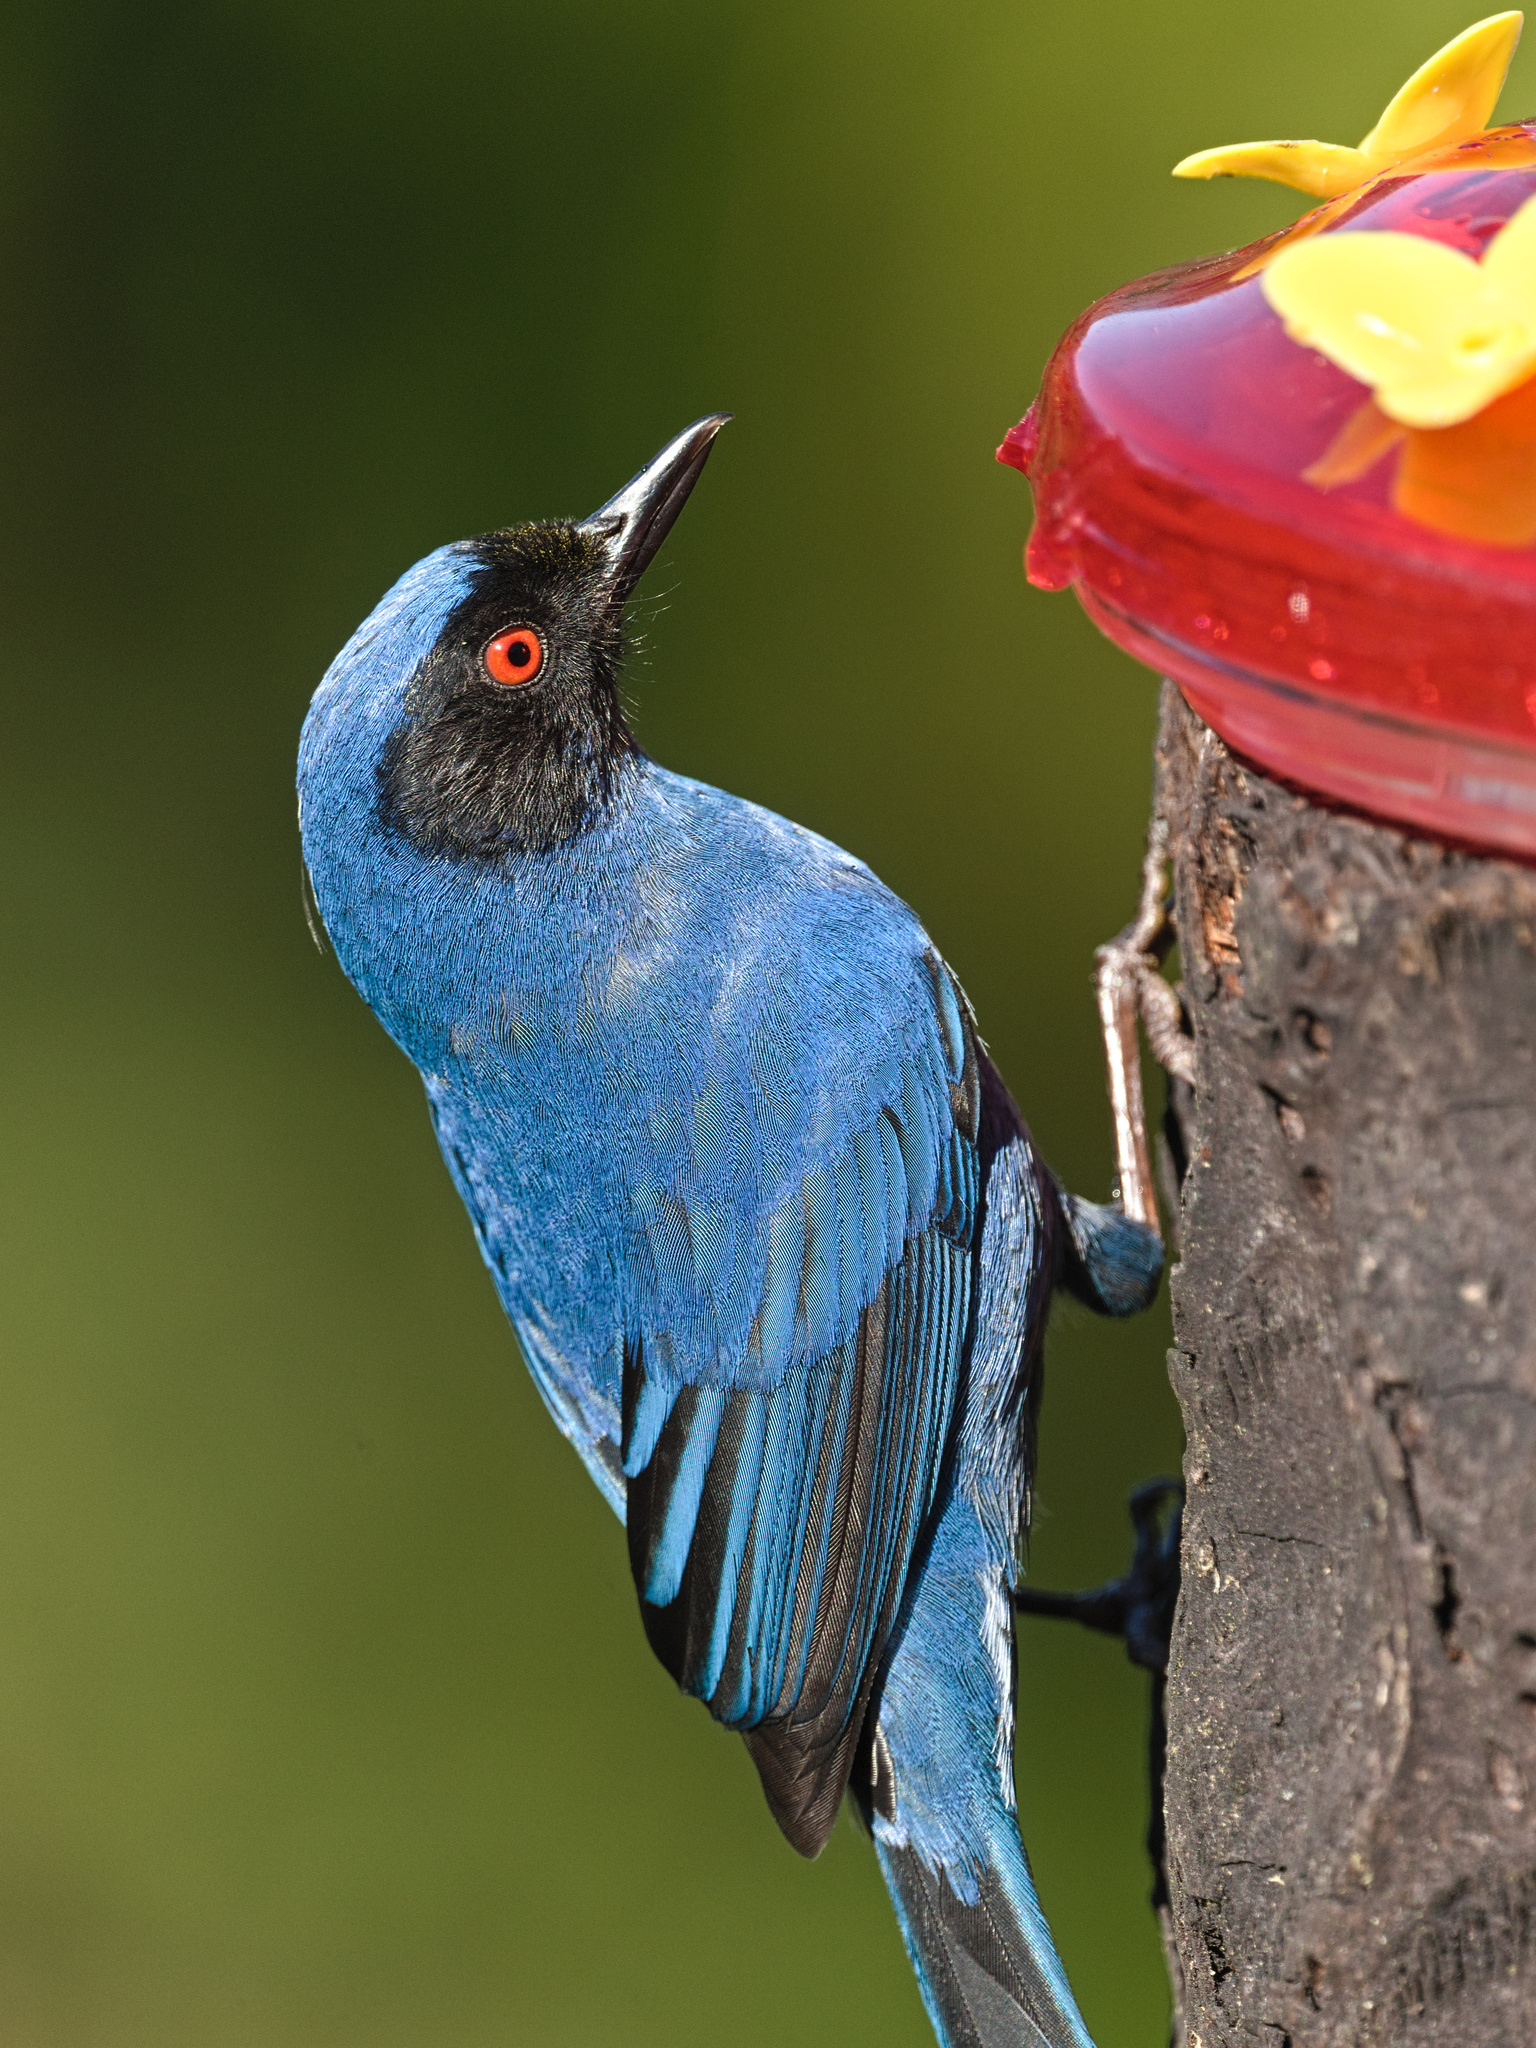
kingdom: Animalia
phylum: Chordata
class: Aves
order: Passeriformes
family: Thraupidae
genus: Diglossa
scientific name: Diglossa cyanea
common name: Masked flowerpiercer
